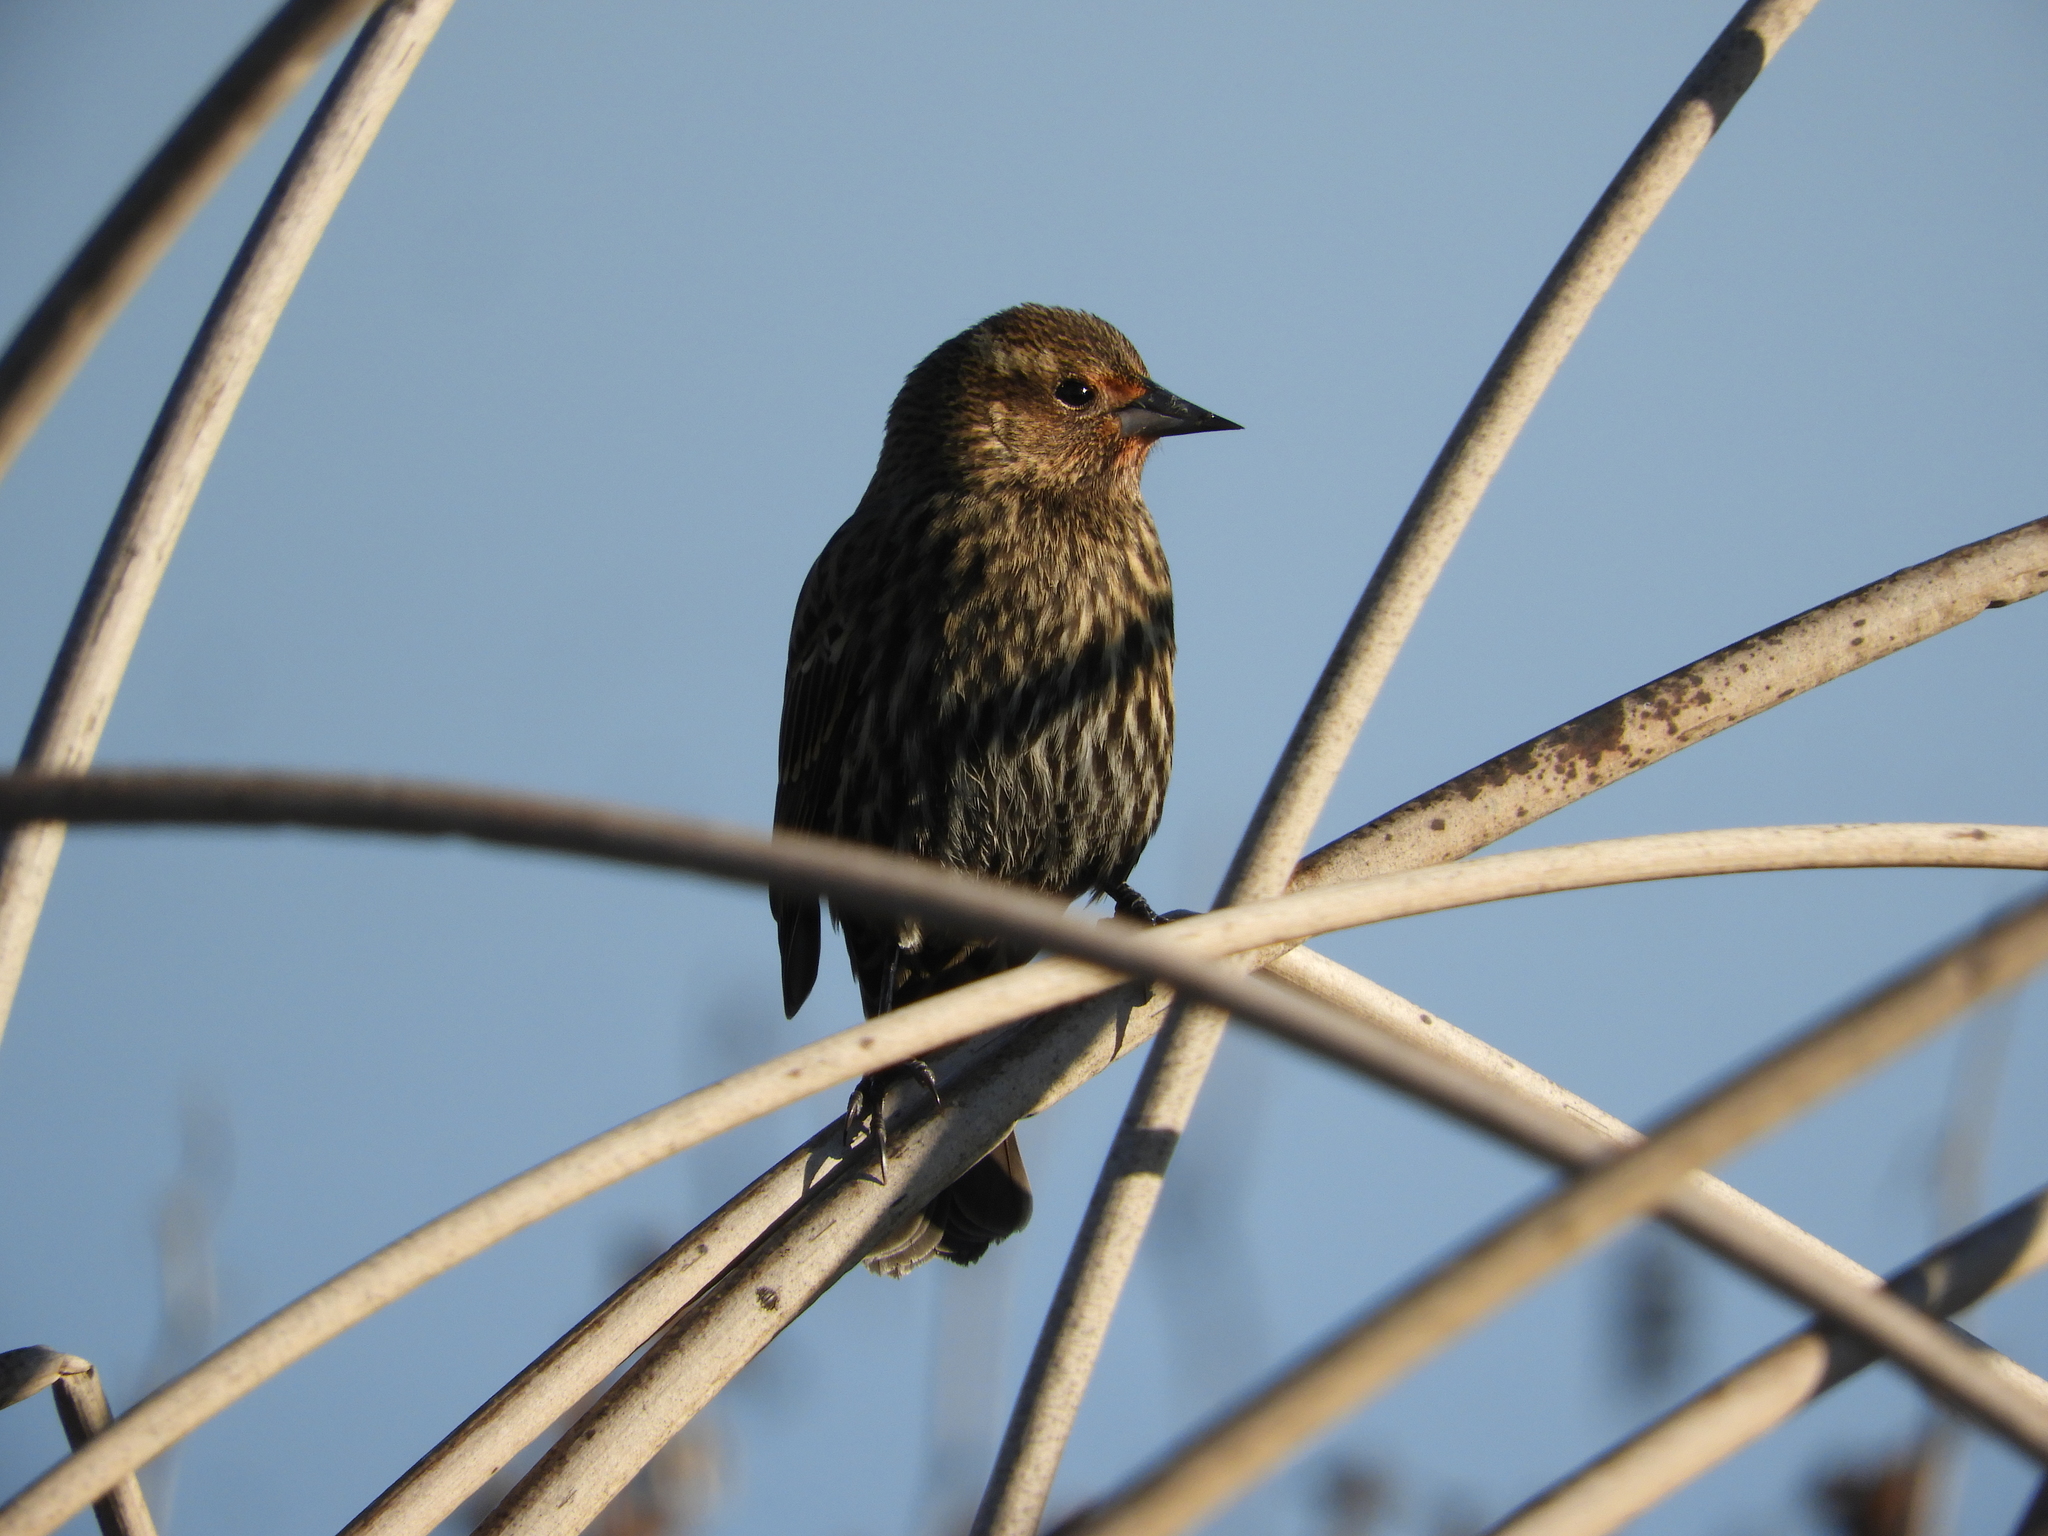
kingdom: Animalia
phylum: Chordata
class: Aves
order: Passeriformes
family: Icteridae
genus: Agelaius
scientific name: Agelaius phoeniceus
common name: Red-winged blackbird
